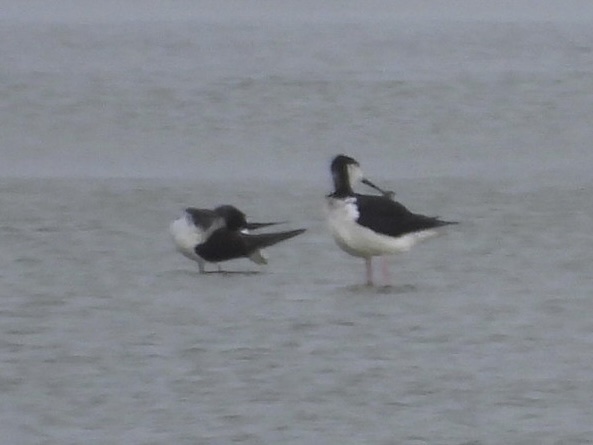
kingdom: Animalia
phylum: Chordata
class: Aves
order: Charadriiformes
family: Recurvirostridae
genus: Himantopus
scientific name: Himantopus mexicanus
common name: Black-necked stilt
